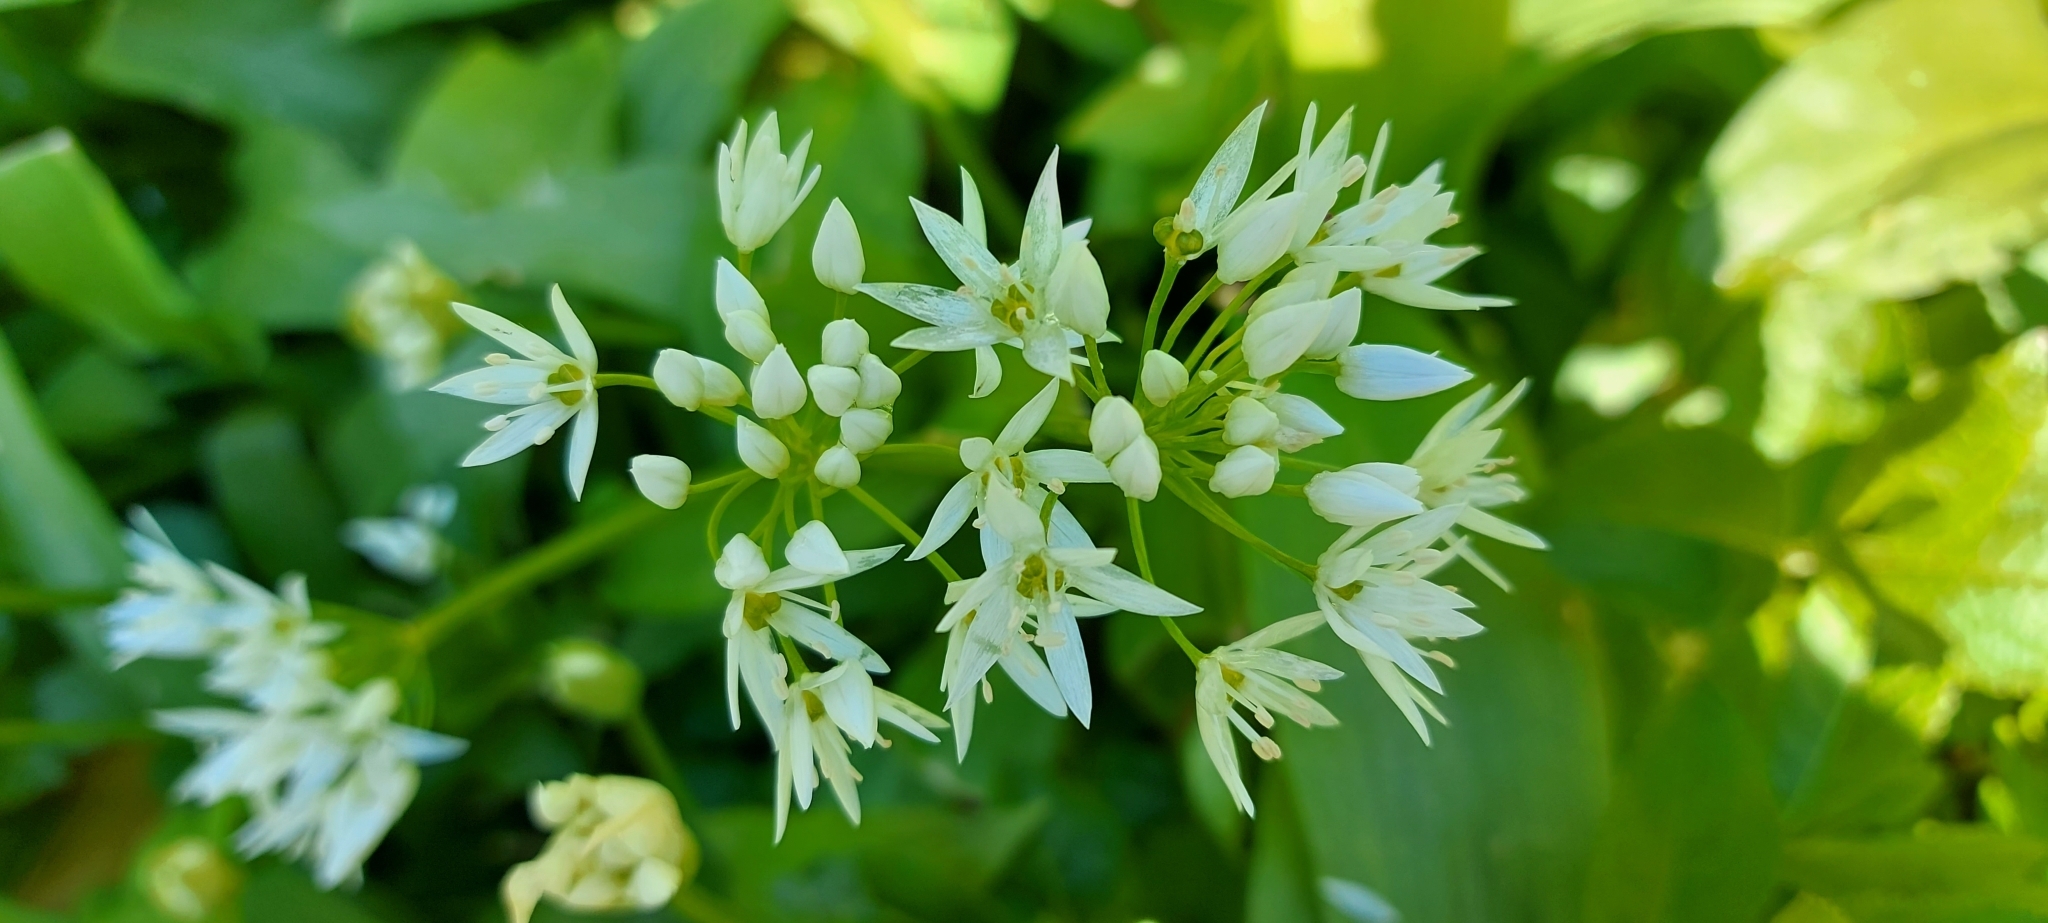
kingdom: Plantae
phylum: Tracheophyta
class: Liliopsida
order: Asparagales
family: Amaryllidaceae
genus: Allium
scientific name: Allium ursinum
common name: Ramsons
